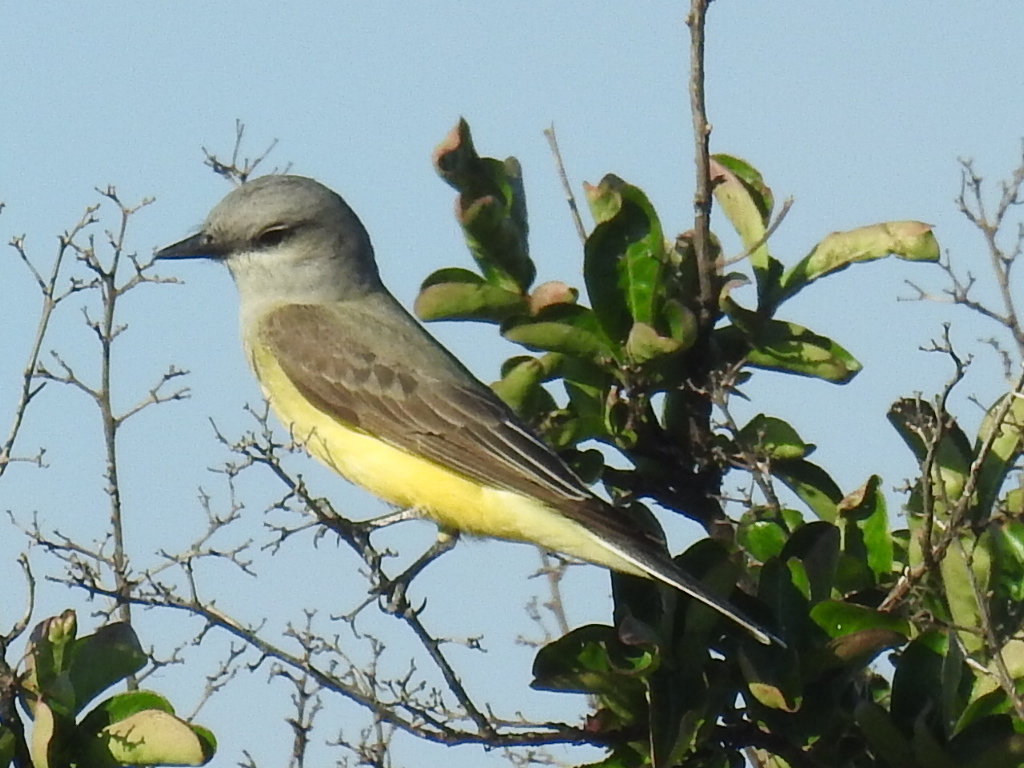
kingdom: Animalia
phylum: Chordata
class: Aves
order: Passeriformes
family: Tyrannidae
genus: Tyrannus
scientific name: Tyrannus verticalis
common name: Western kingbird
